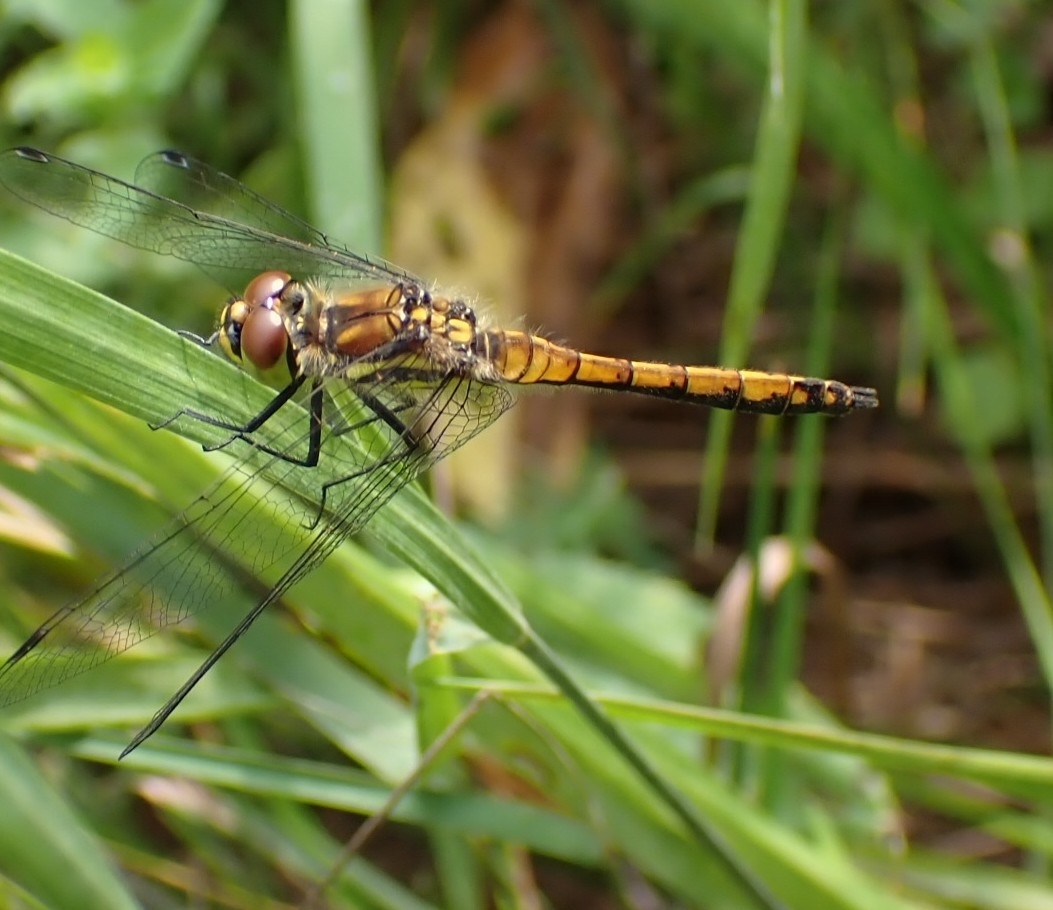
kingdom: Animalia
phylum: Arthropoda
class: Insecta
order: Odonata
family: Libellulidae
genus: Sympetrum
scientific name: Sympetrum danae
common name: Black darter
